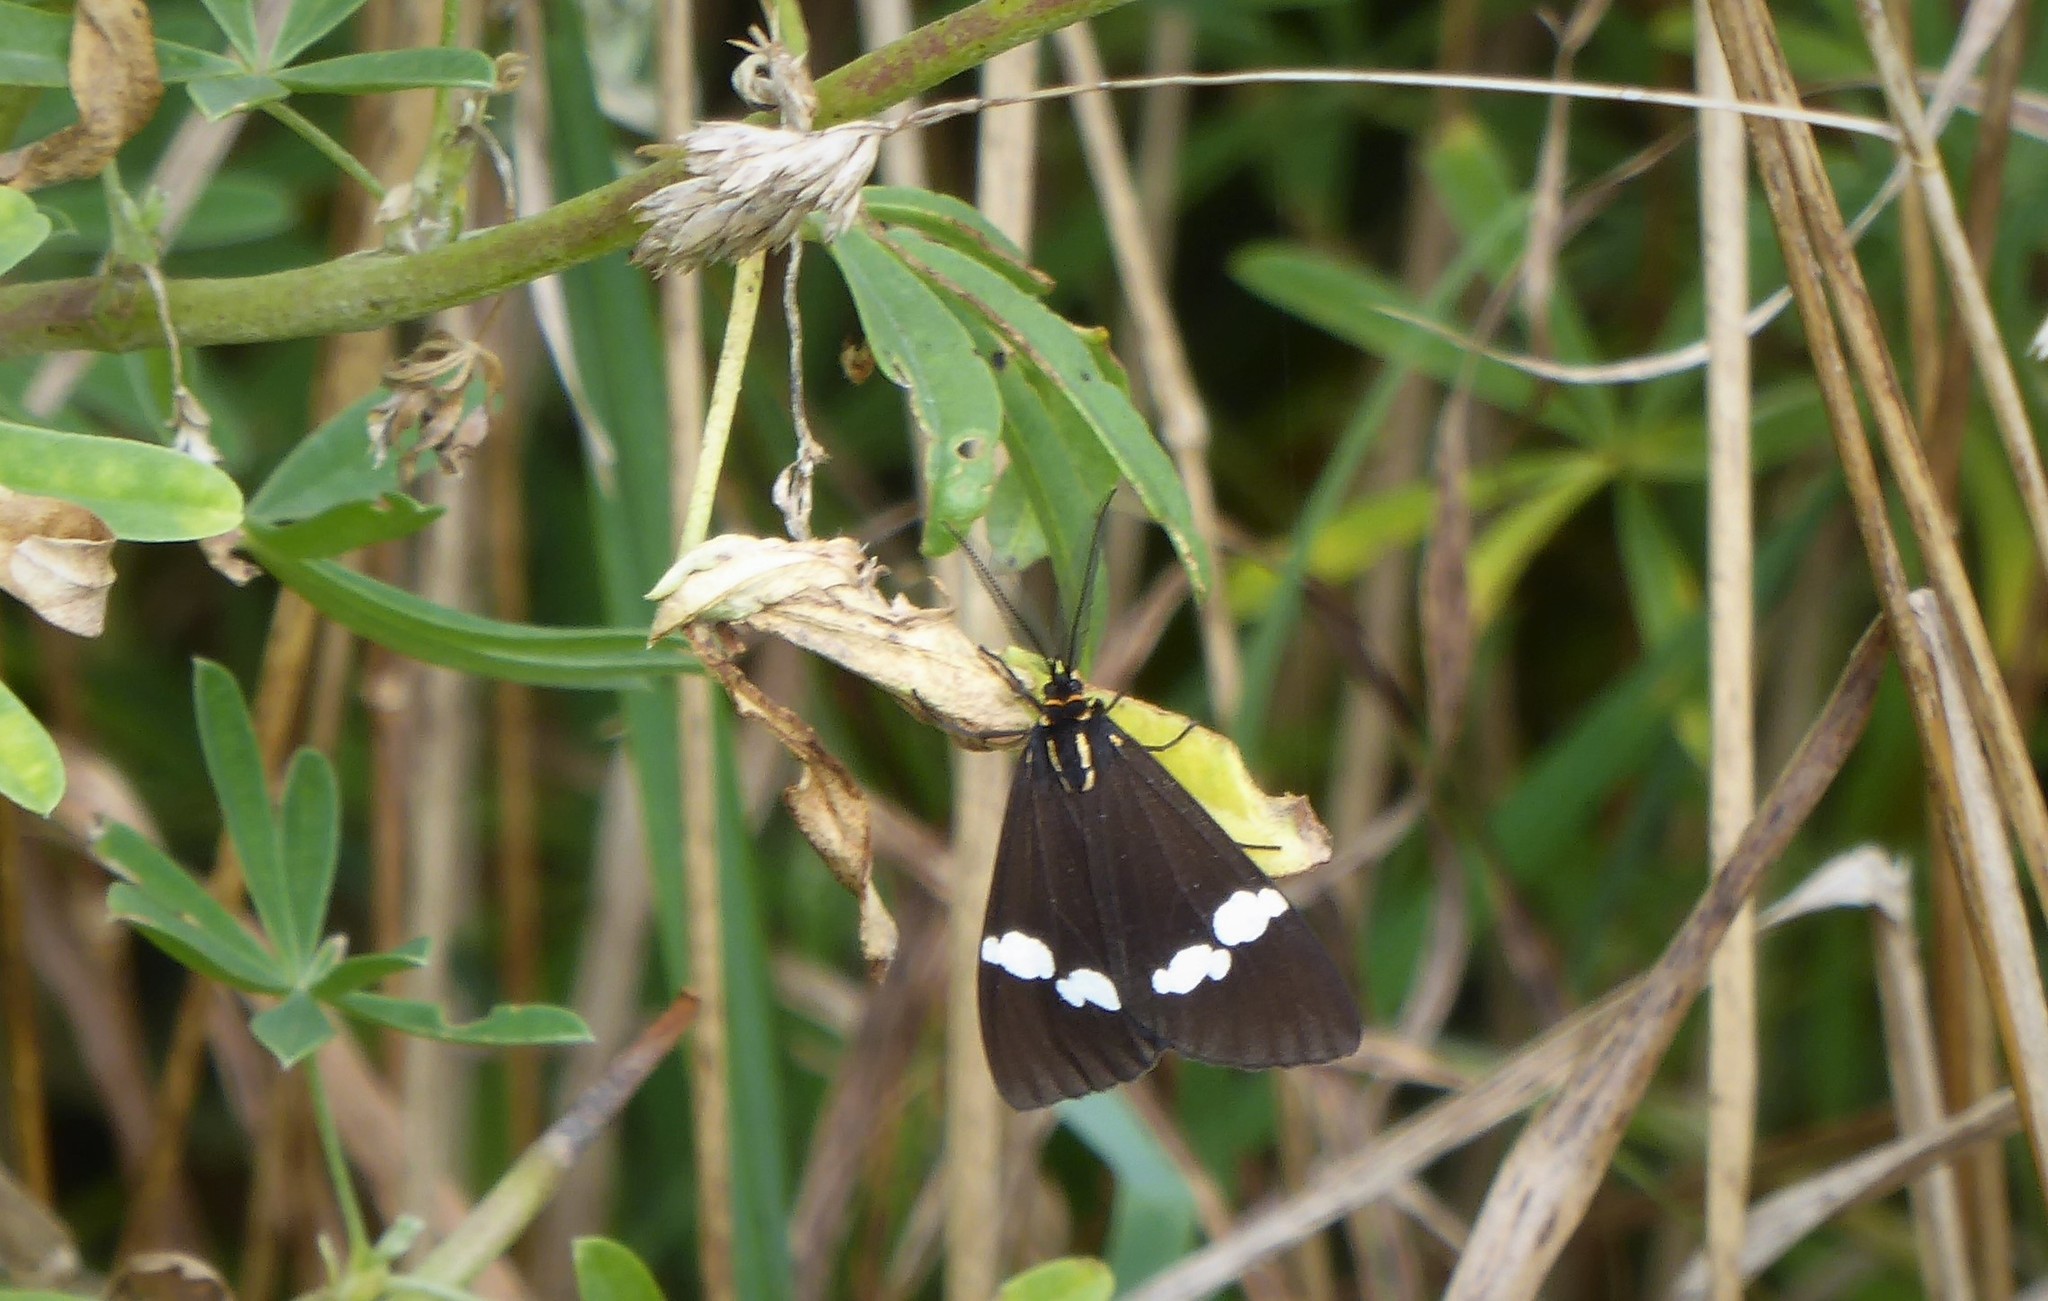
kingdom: Animalia
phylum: Arthropoda
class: Insecta
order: Lepidoptera
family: Erebidae
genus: Nyctemera
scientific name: Nyctemera annulatum
